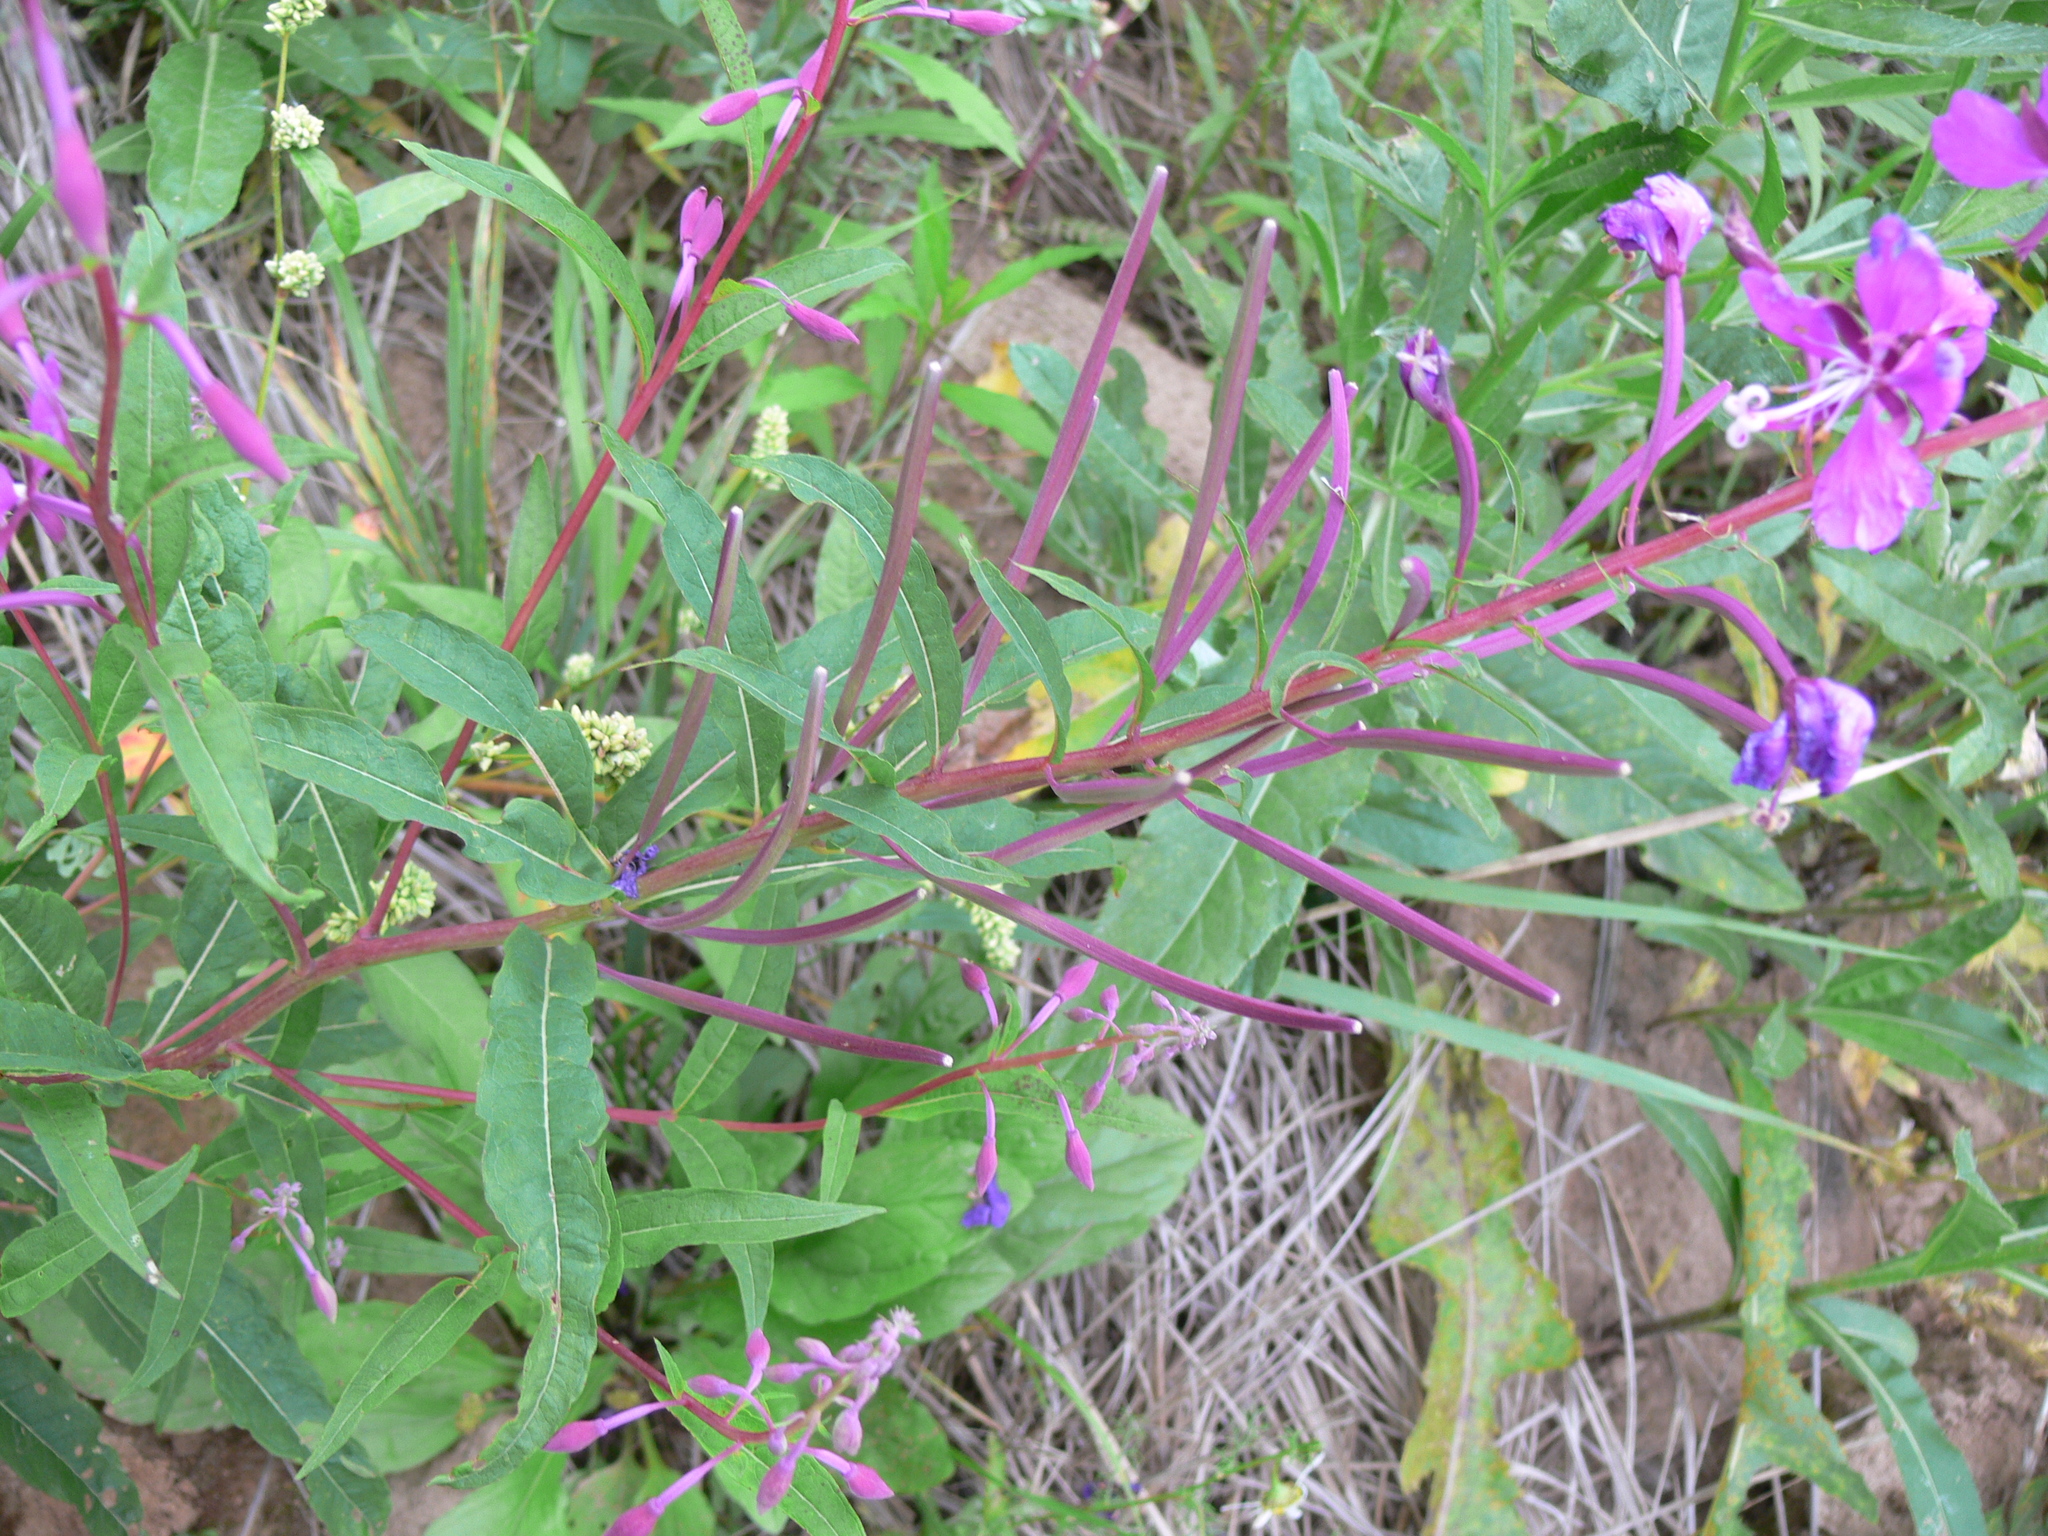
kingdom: Plantae
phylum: Tracheophyta
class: Magnoliopsida
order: Myrtales
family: Onagraceae
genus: Chamaenerion
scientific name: Chamaenerion angustifolium
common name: Fireweed
